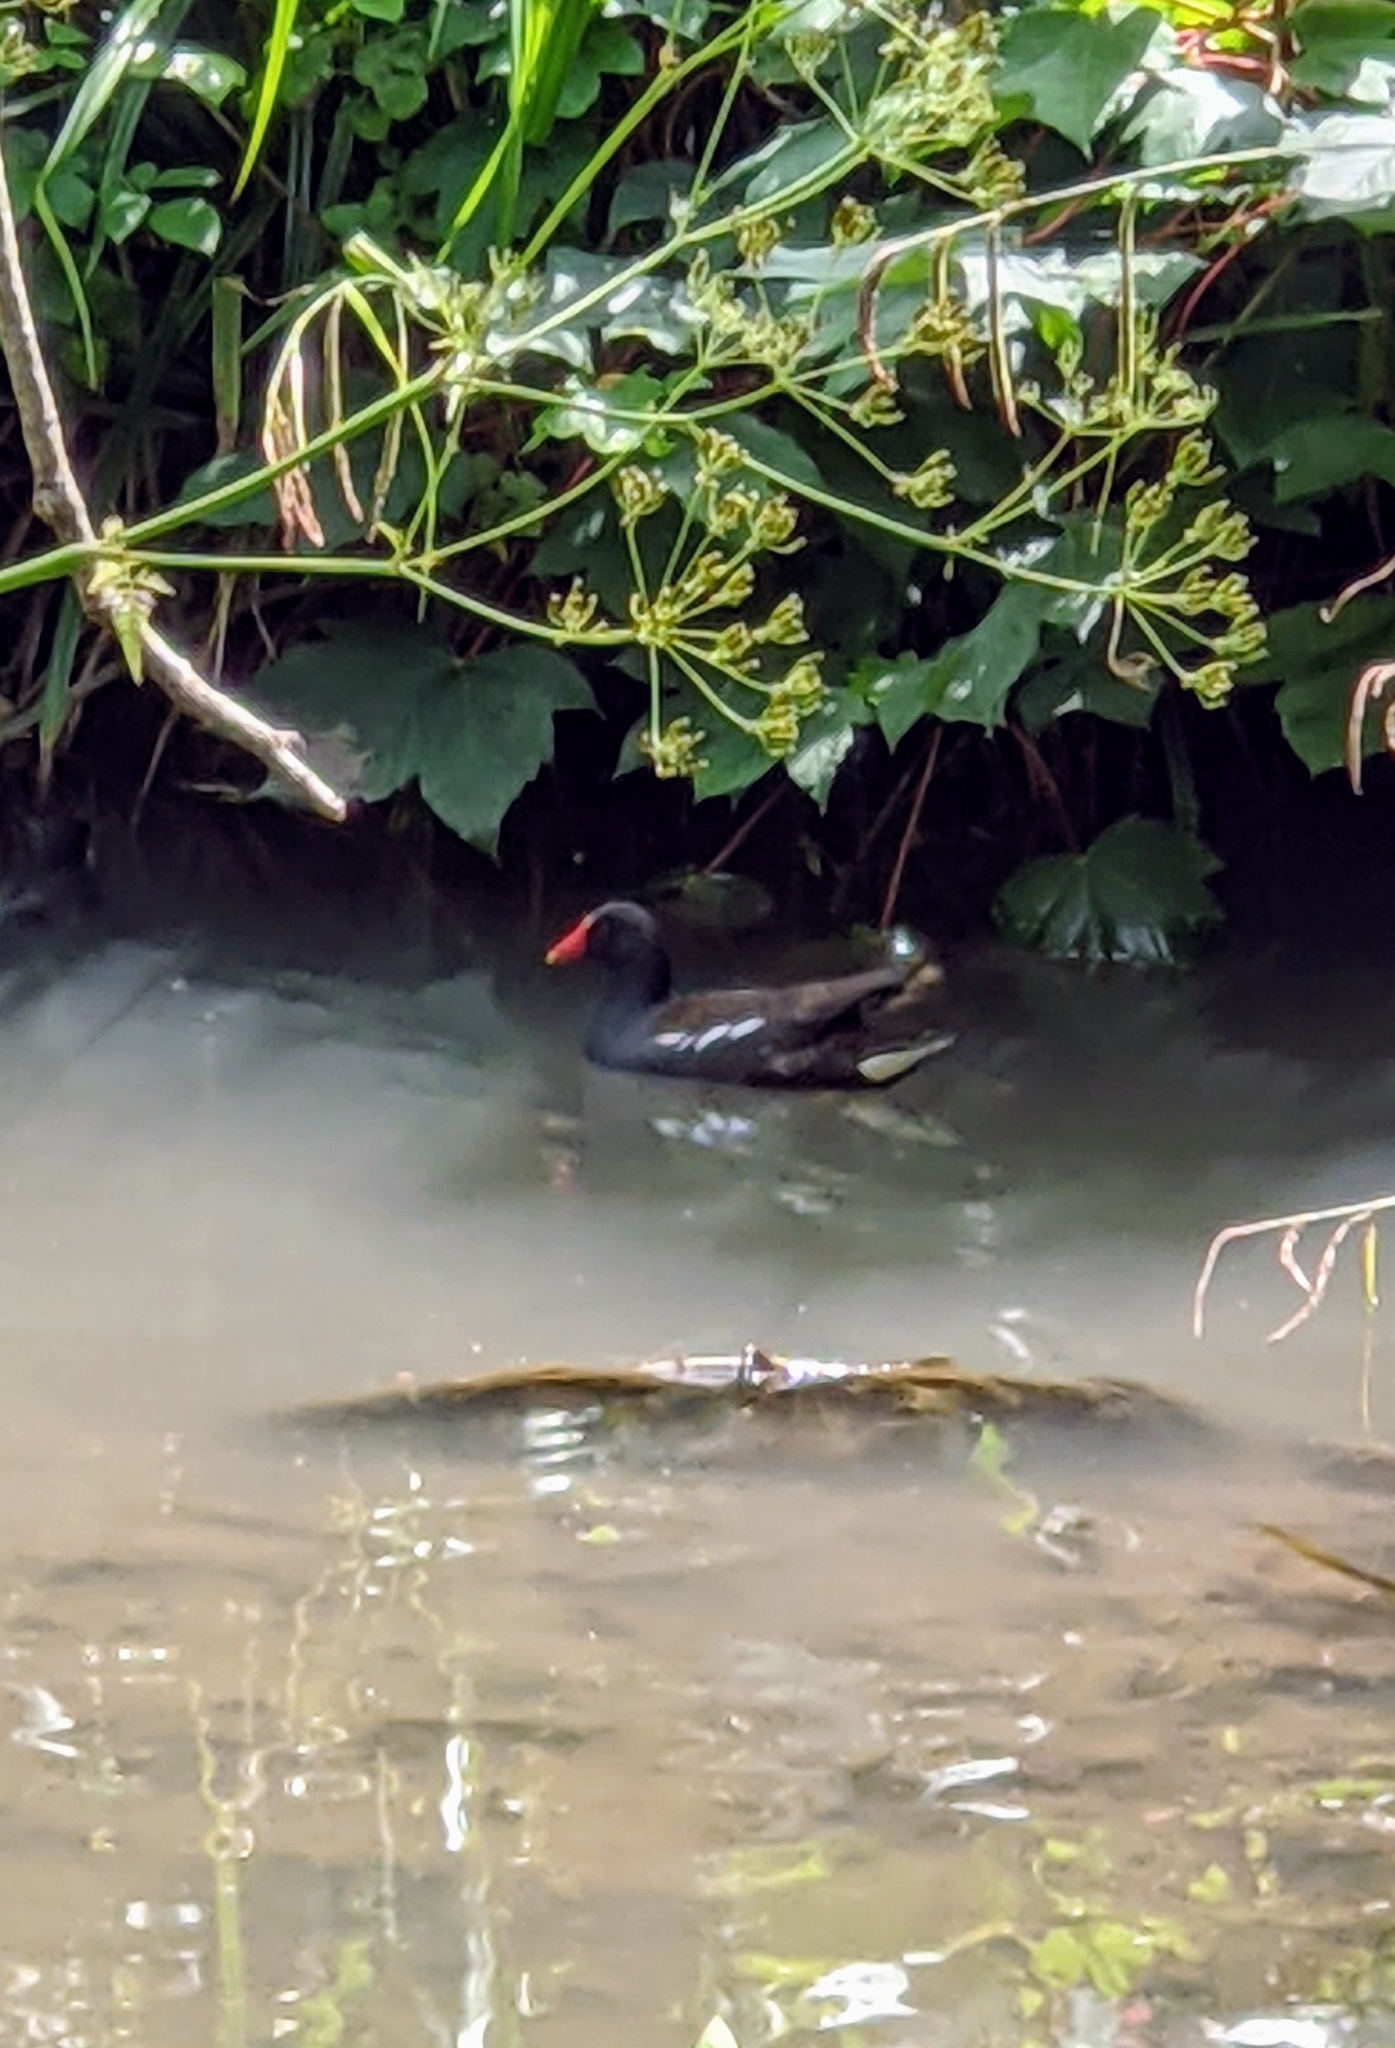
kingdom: Animalia
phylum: Chordata
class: Aves
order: Gruiformes
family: Rallidae
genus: Gallinula
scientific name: Gallinula chloropus
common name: Common moorhen
